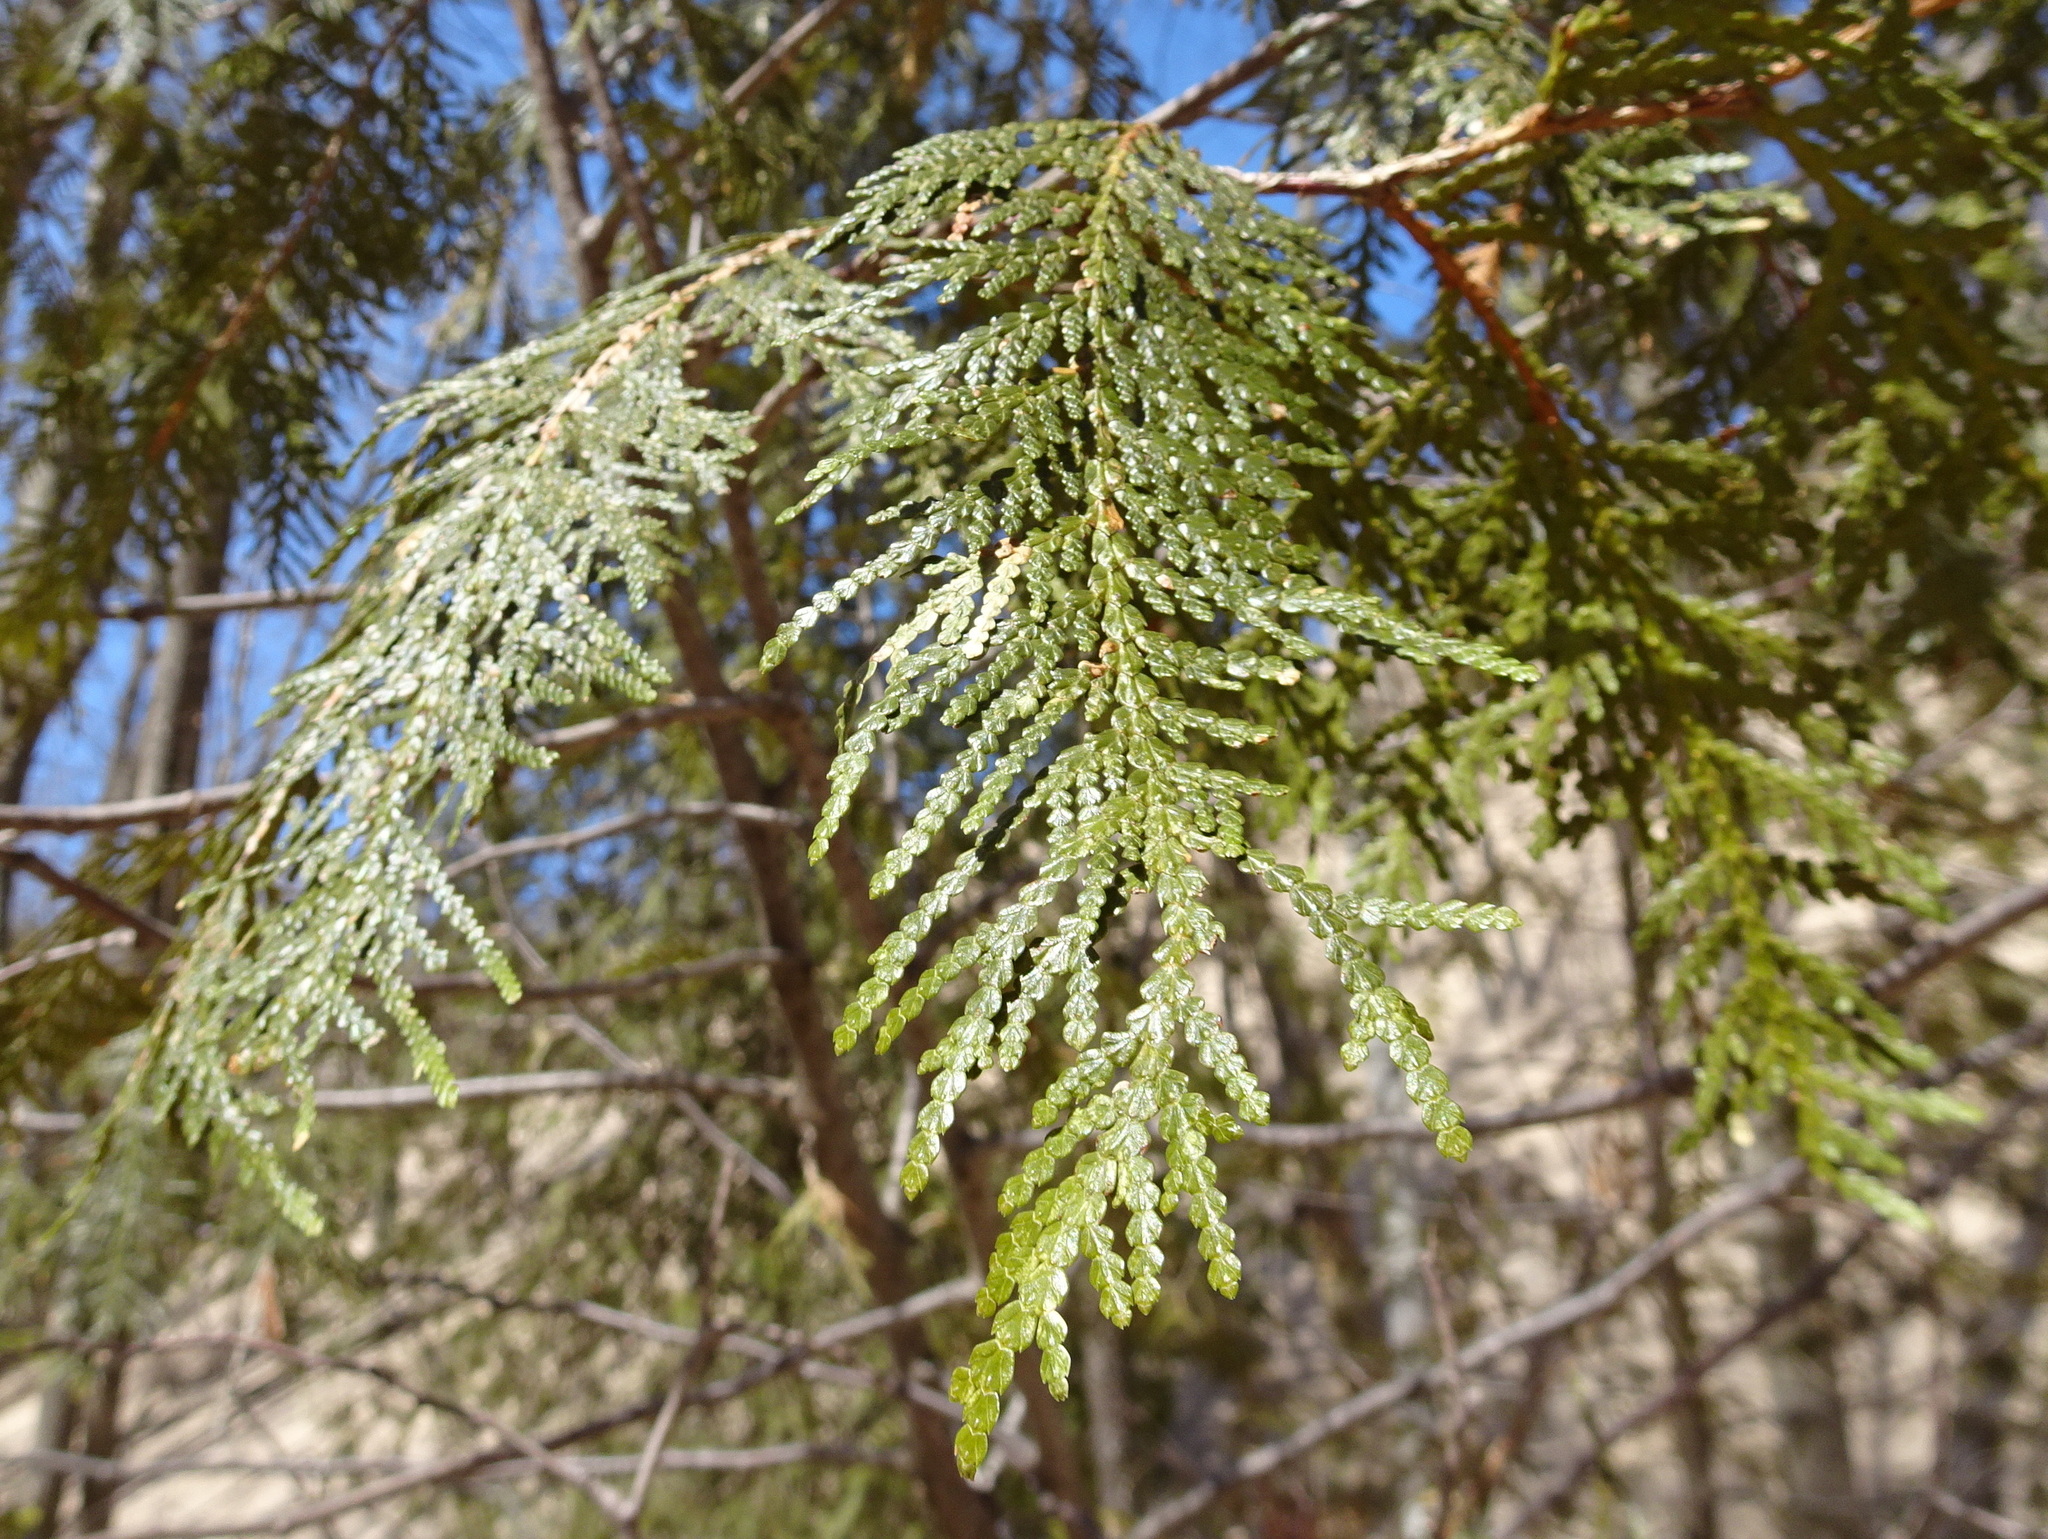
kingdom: Plantae
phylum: Tracheophyta
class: Pinopsida
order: Pinales
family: Cupressaceae
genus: Thuja
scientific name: Thuja occidentalis
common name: Northern white-cedar
